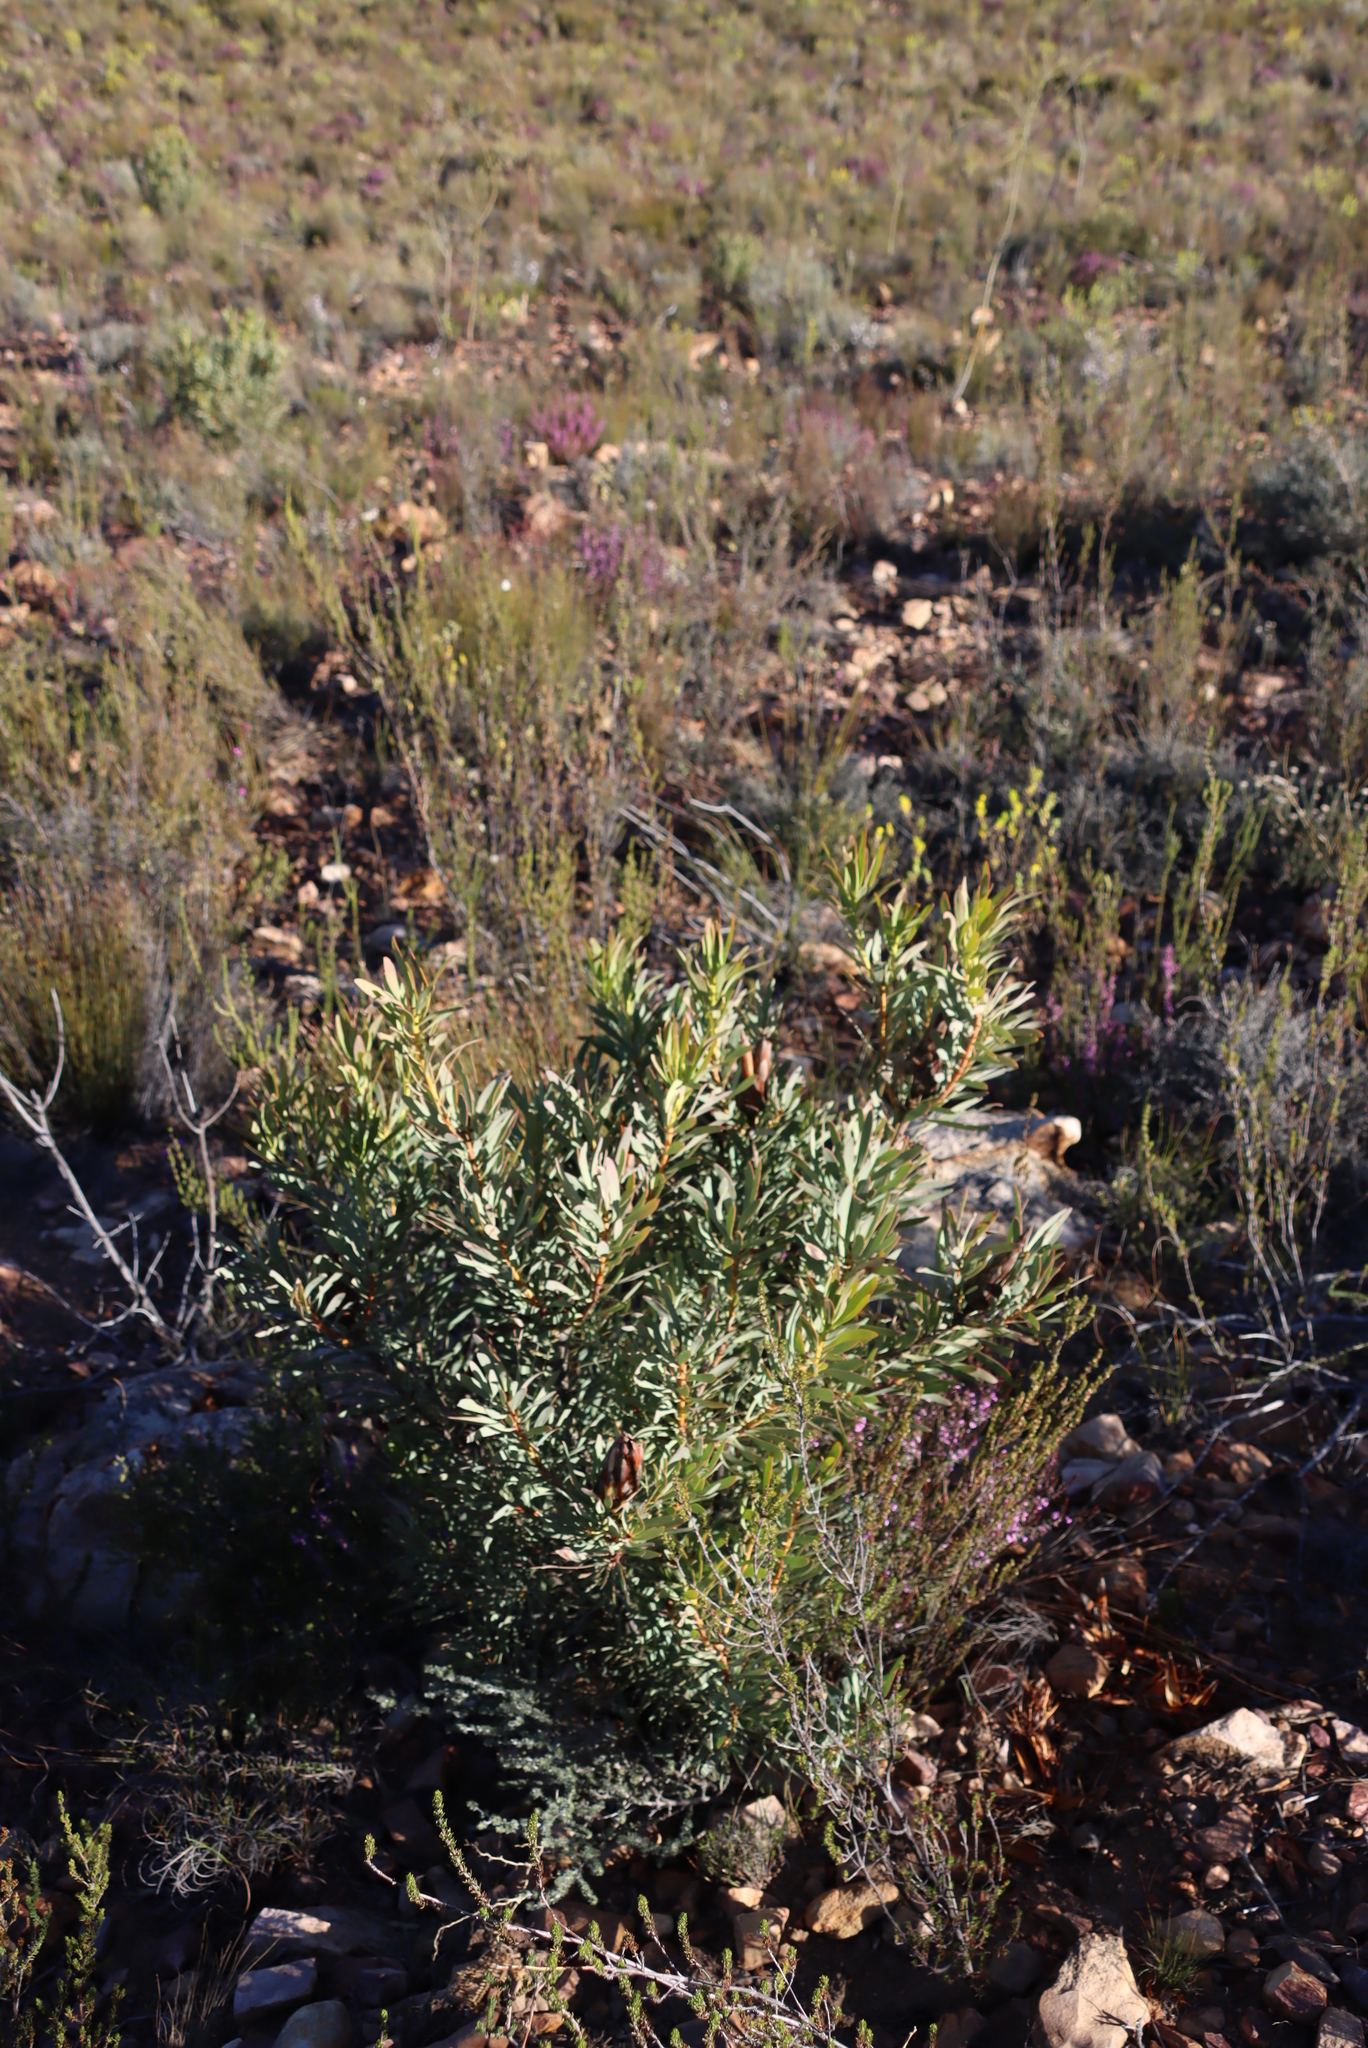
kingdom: Plantae
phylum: Tracheophyta
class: Magnoliopsida
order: Proteales
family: Proteaceae
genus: Protea
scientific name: Protea repens
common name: Sugarbush
